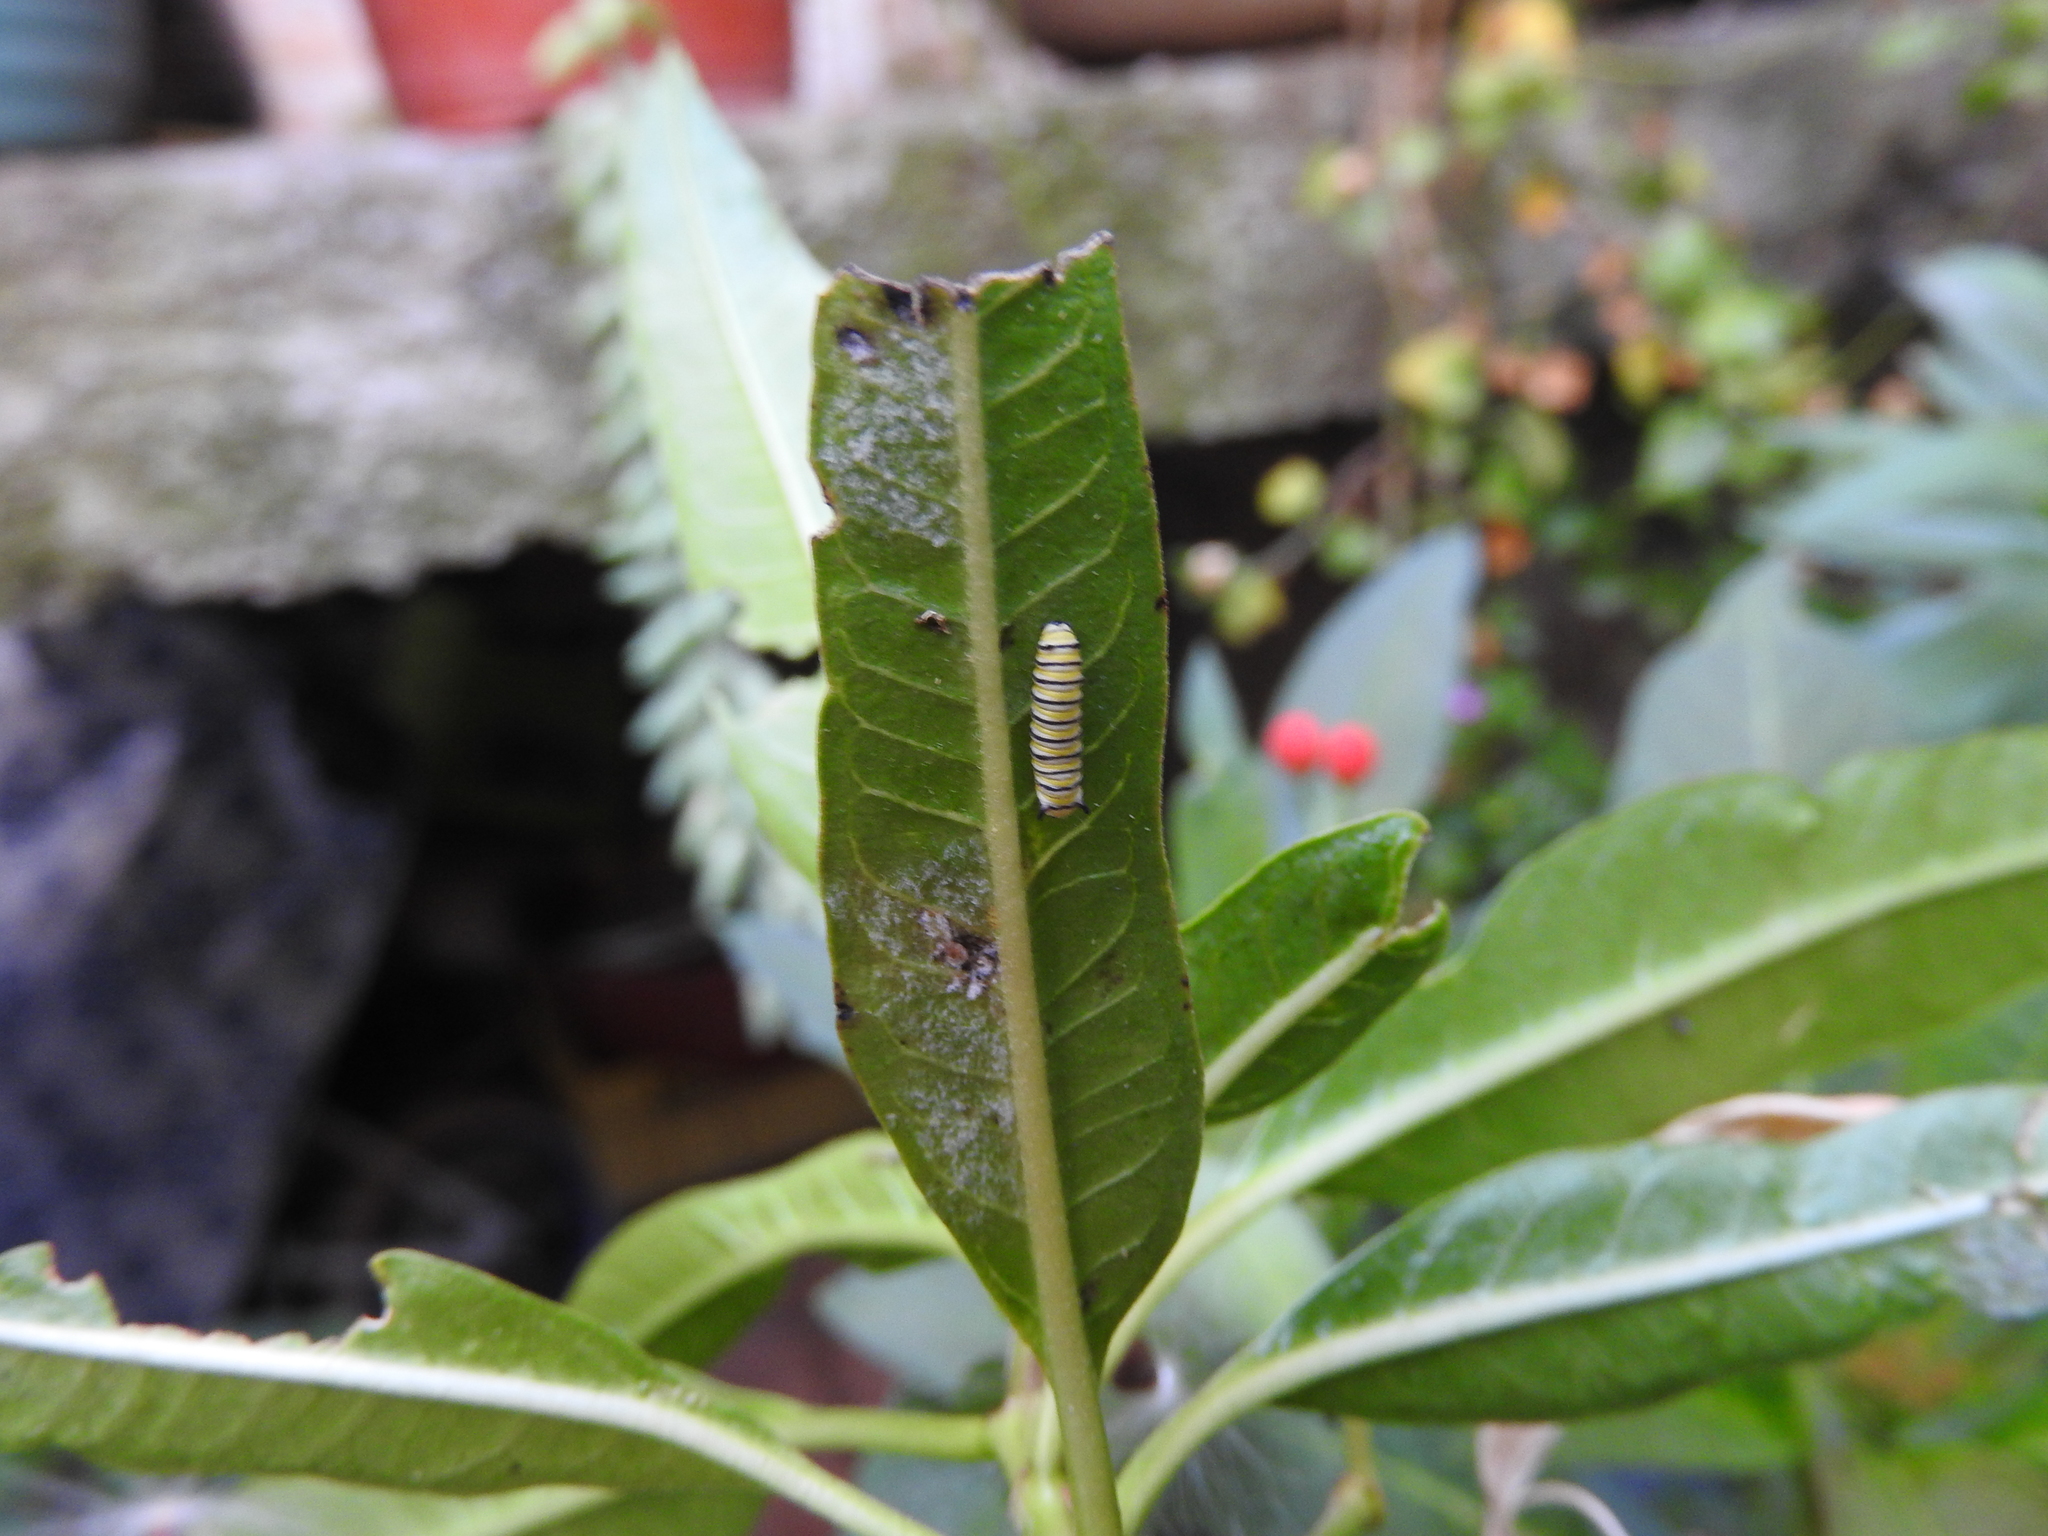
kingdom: Animalia
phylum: Arthropoda
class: Insecta
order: Lepidoptera
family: Nymphalidae
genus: Danaus
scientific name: Danaus plexippus
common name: Monarch
